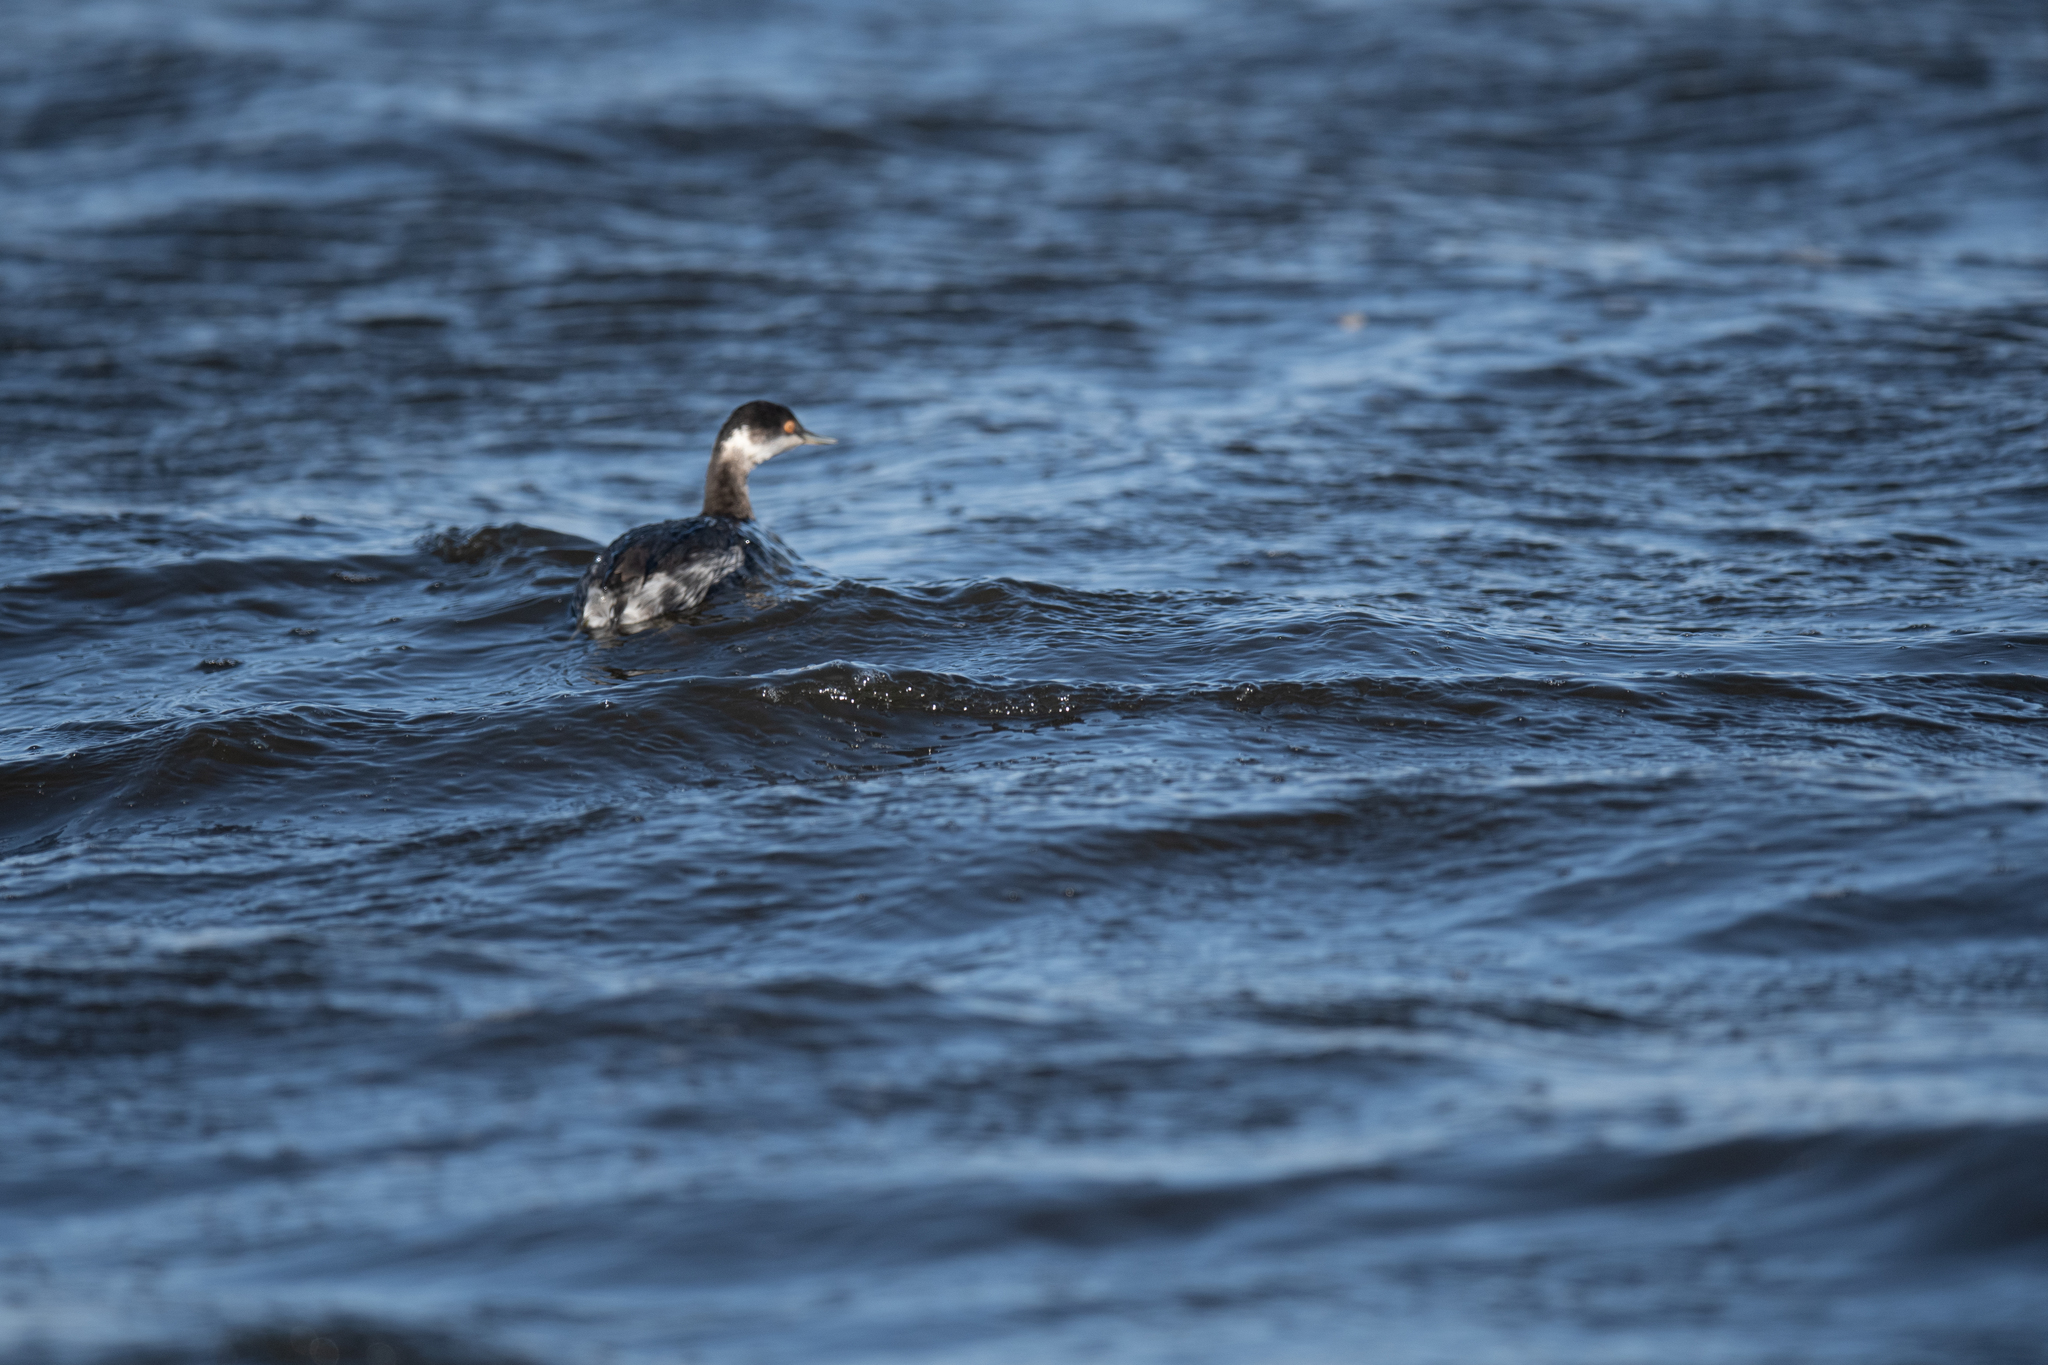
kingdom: Animalia
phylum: Chordata
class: Aves
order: Podicipediformes
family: Podicipedidae
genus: Podiceps
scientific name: Podiceps nigricollis
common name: Black-necked grebe
